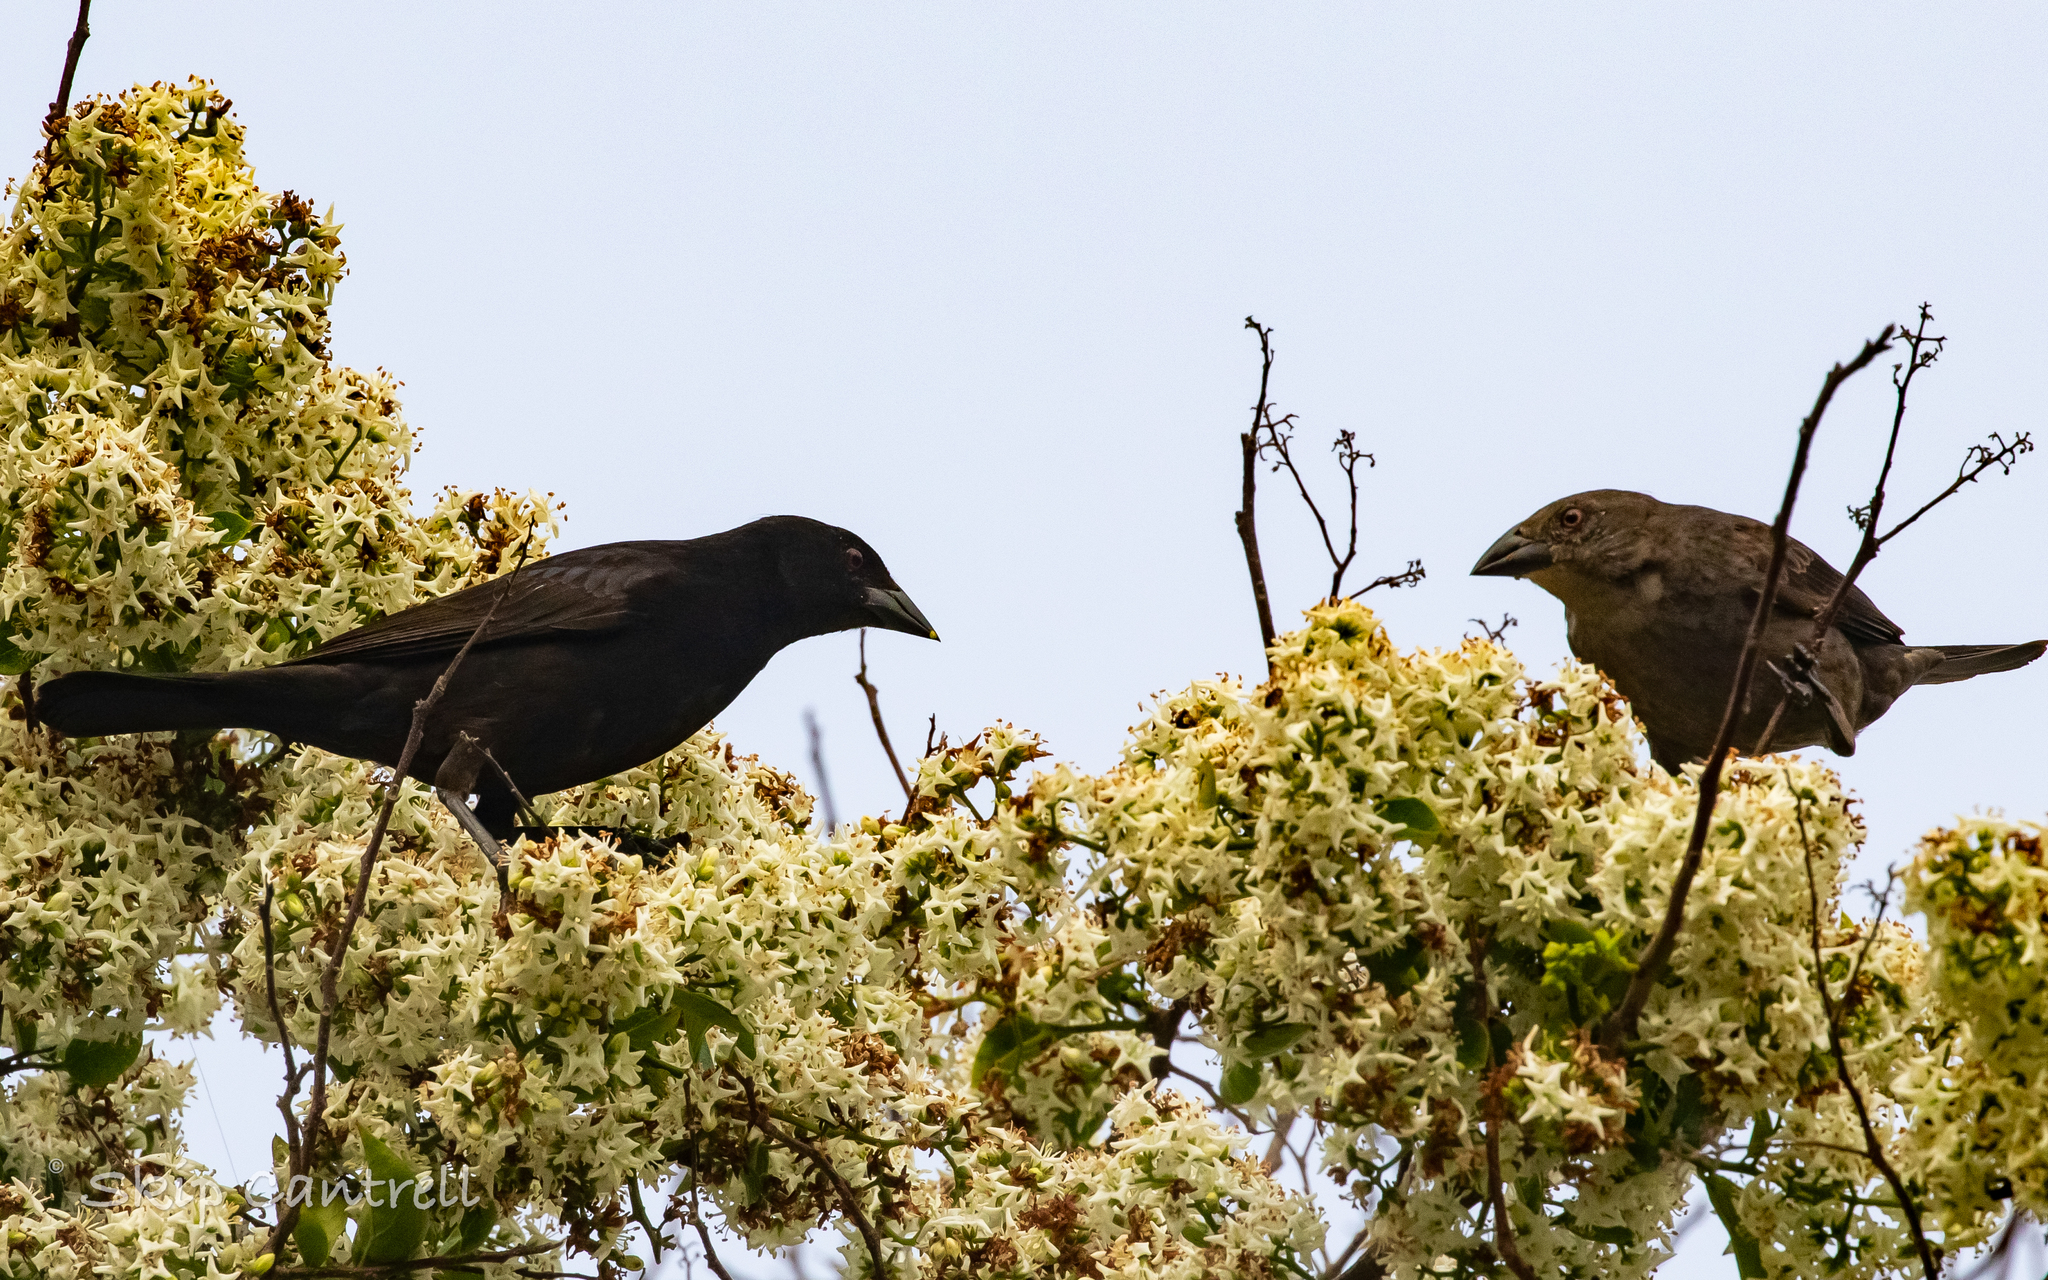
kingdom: Animalia
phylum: Chordata
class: Aves
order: Passeriformes
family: Icteridae
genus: Molothrus
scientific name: Molothrus aeneus
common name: Bronzed cowbird
